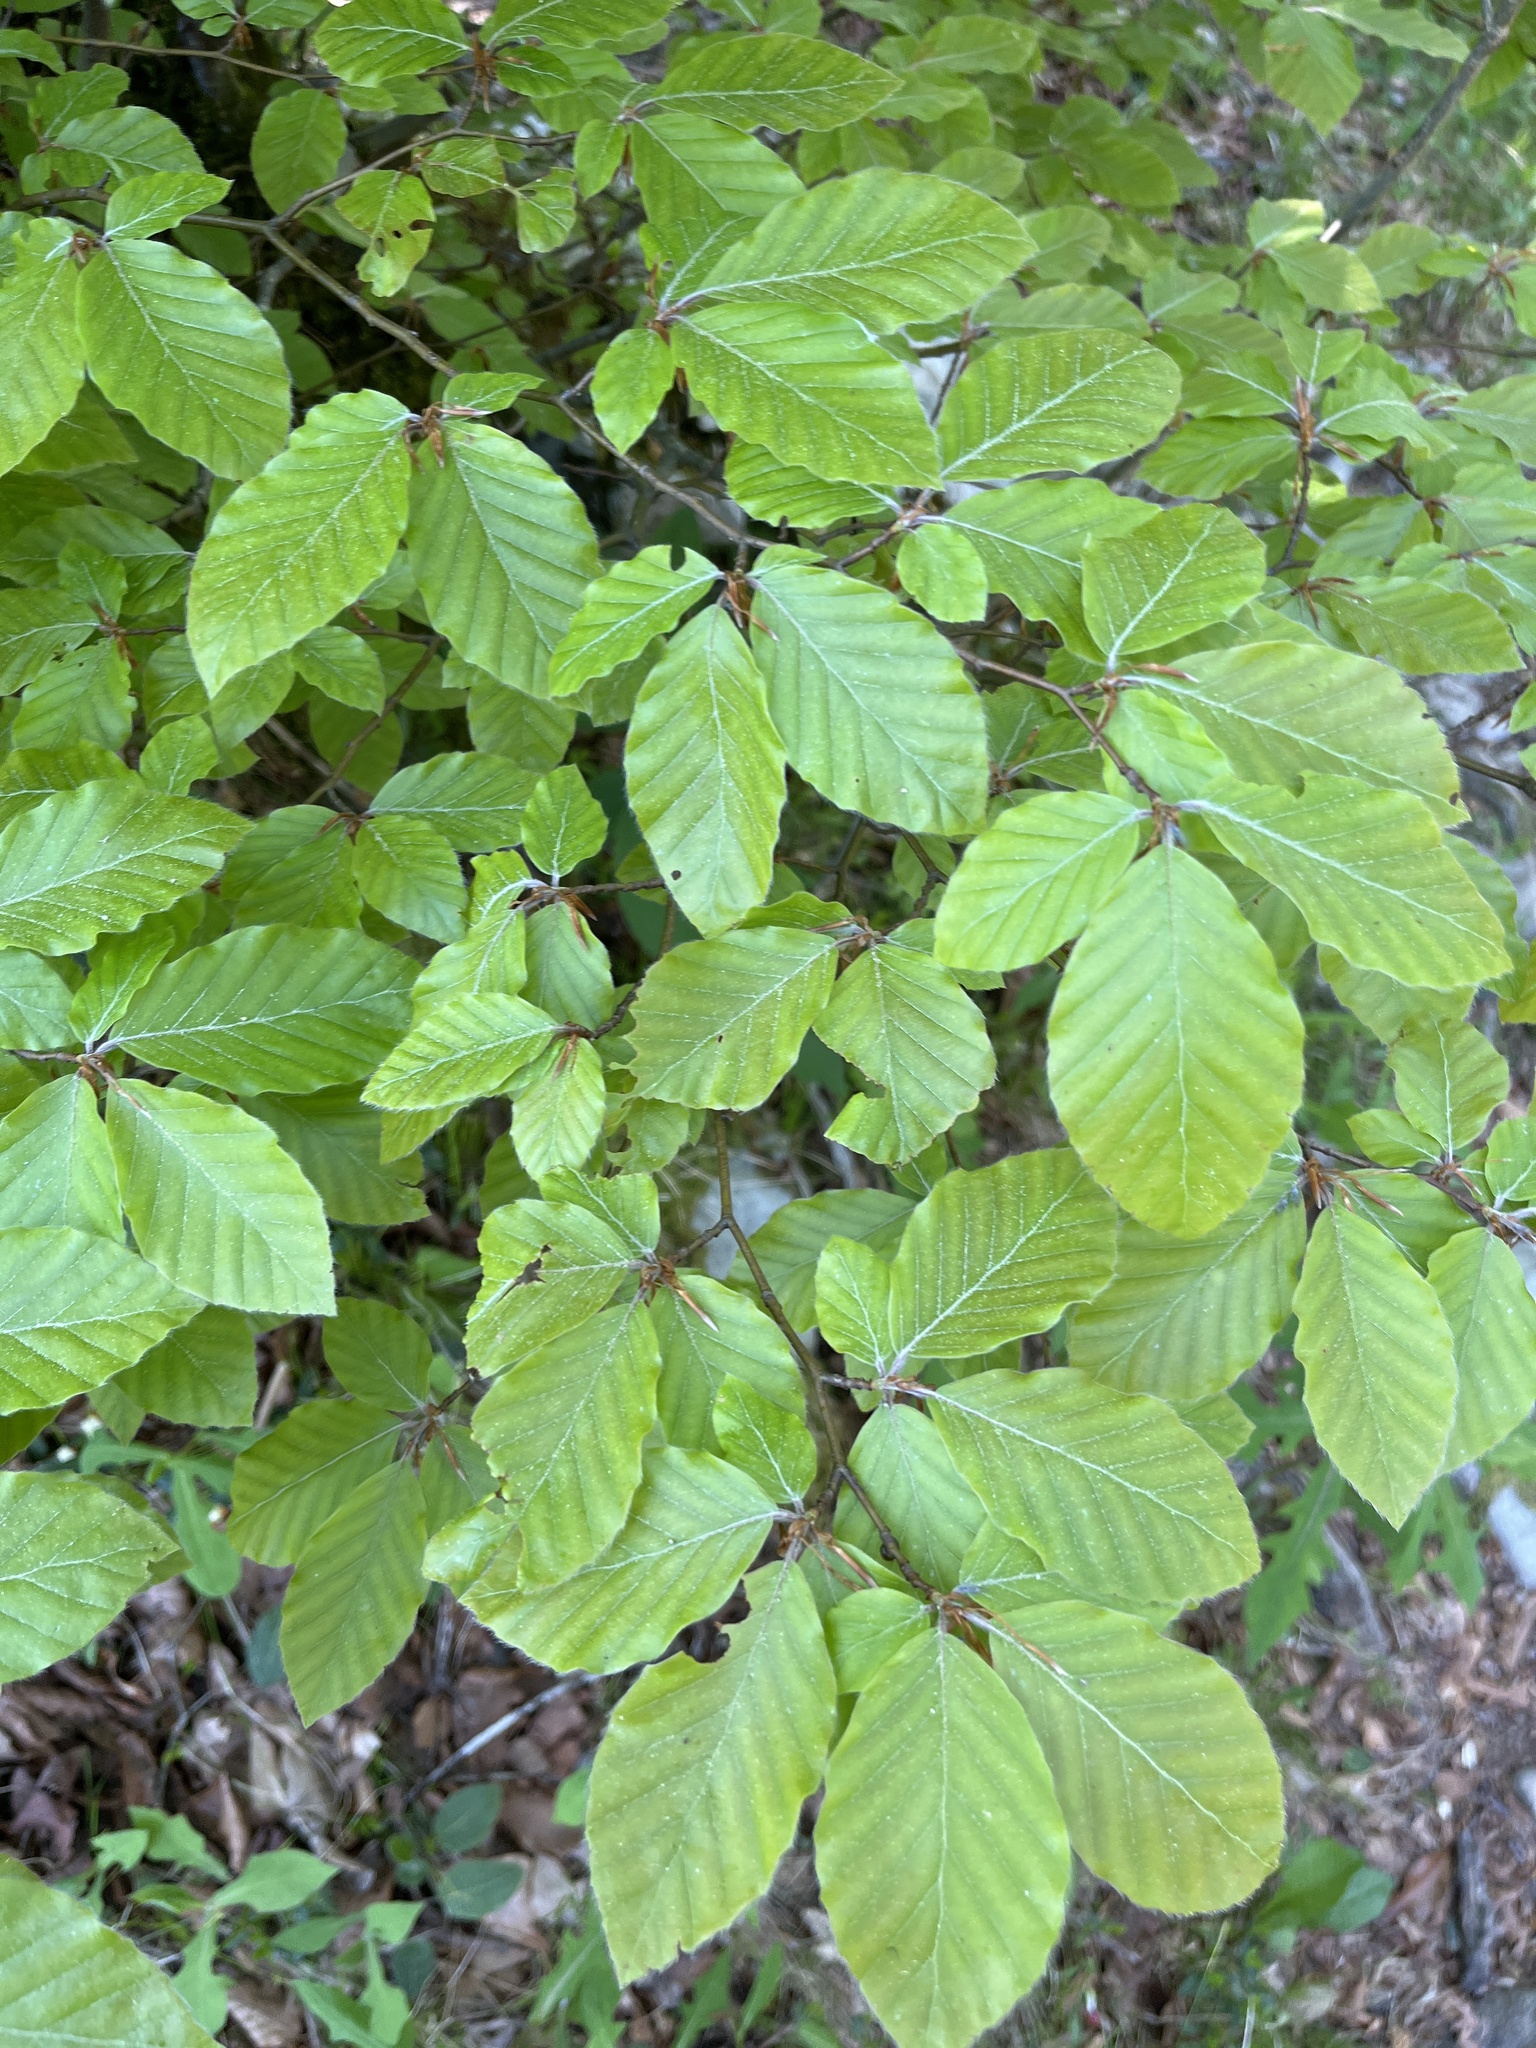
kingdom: Plantae
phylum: Tracheophyta
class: Magnoliopsida
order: Fagales
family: Fagaceae
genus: Fagus
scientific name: Fagus sylvatica
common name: Beech
